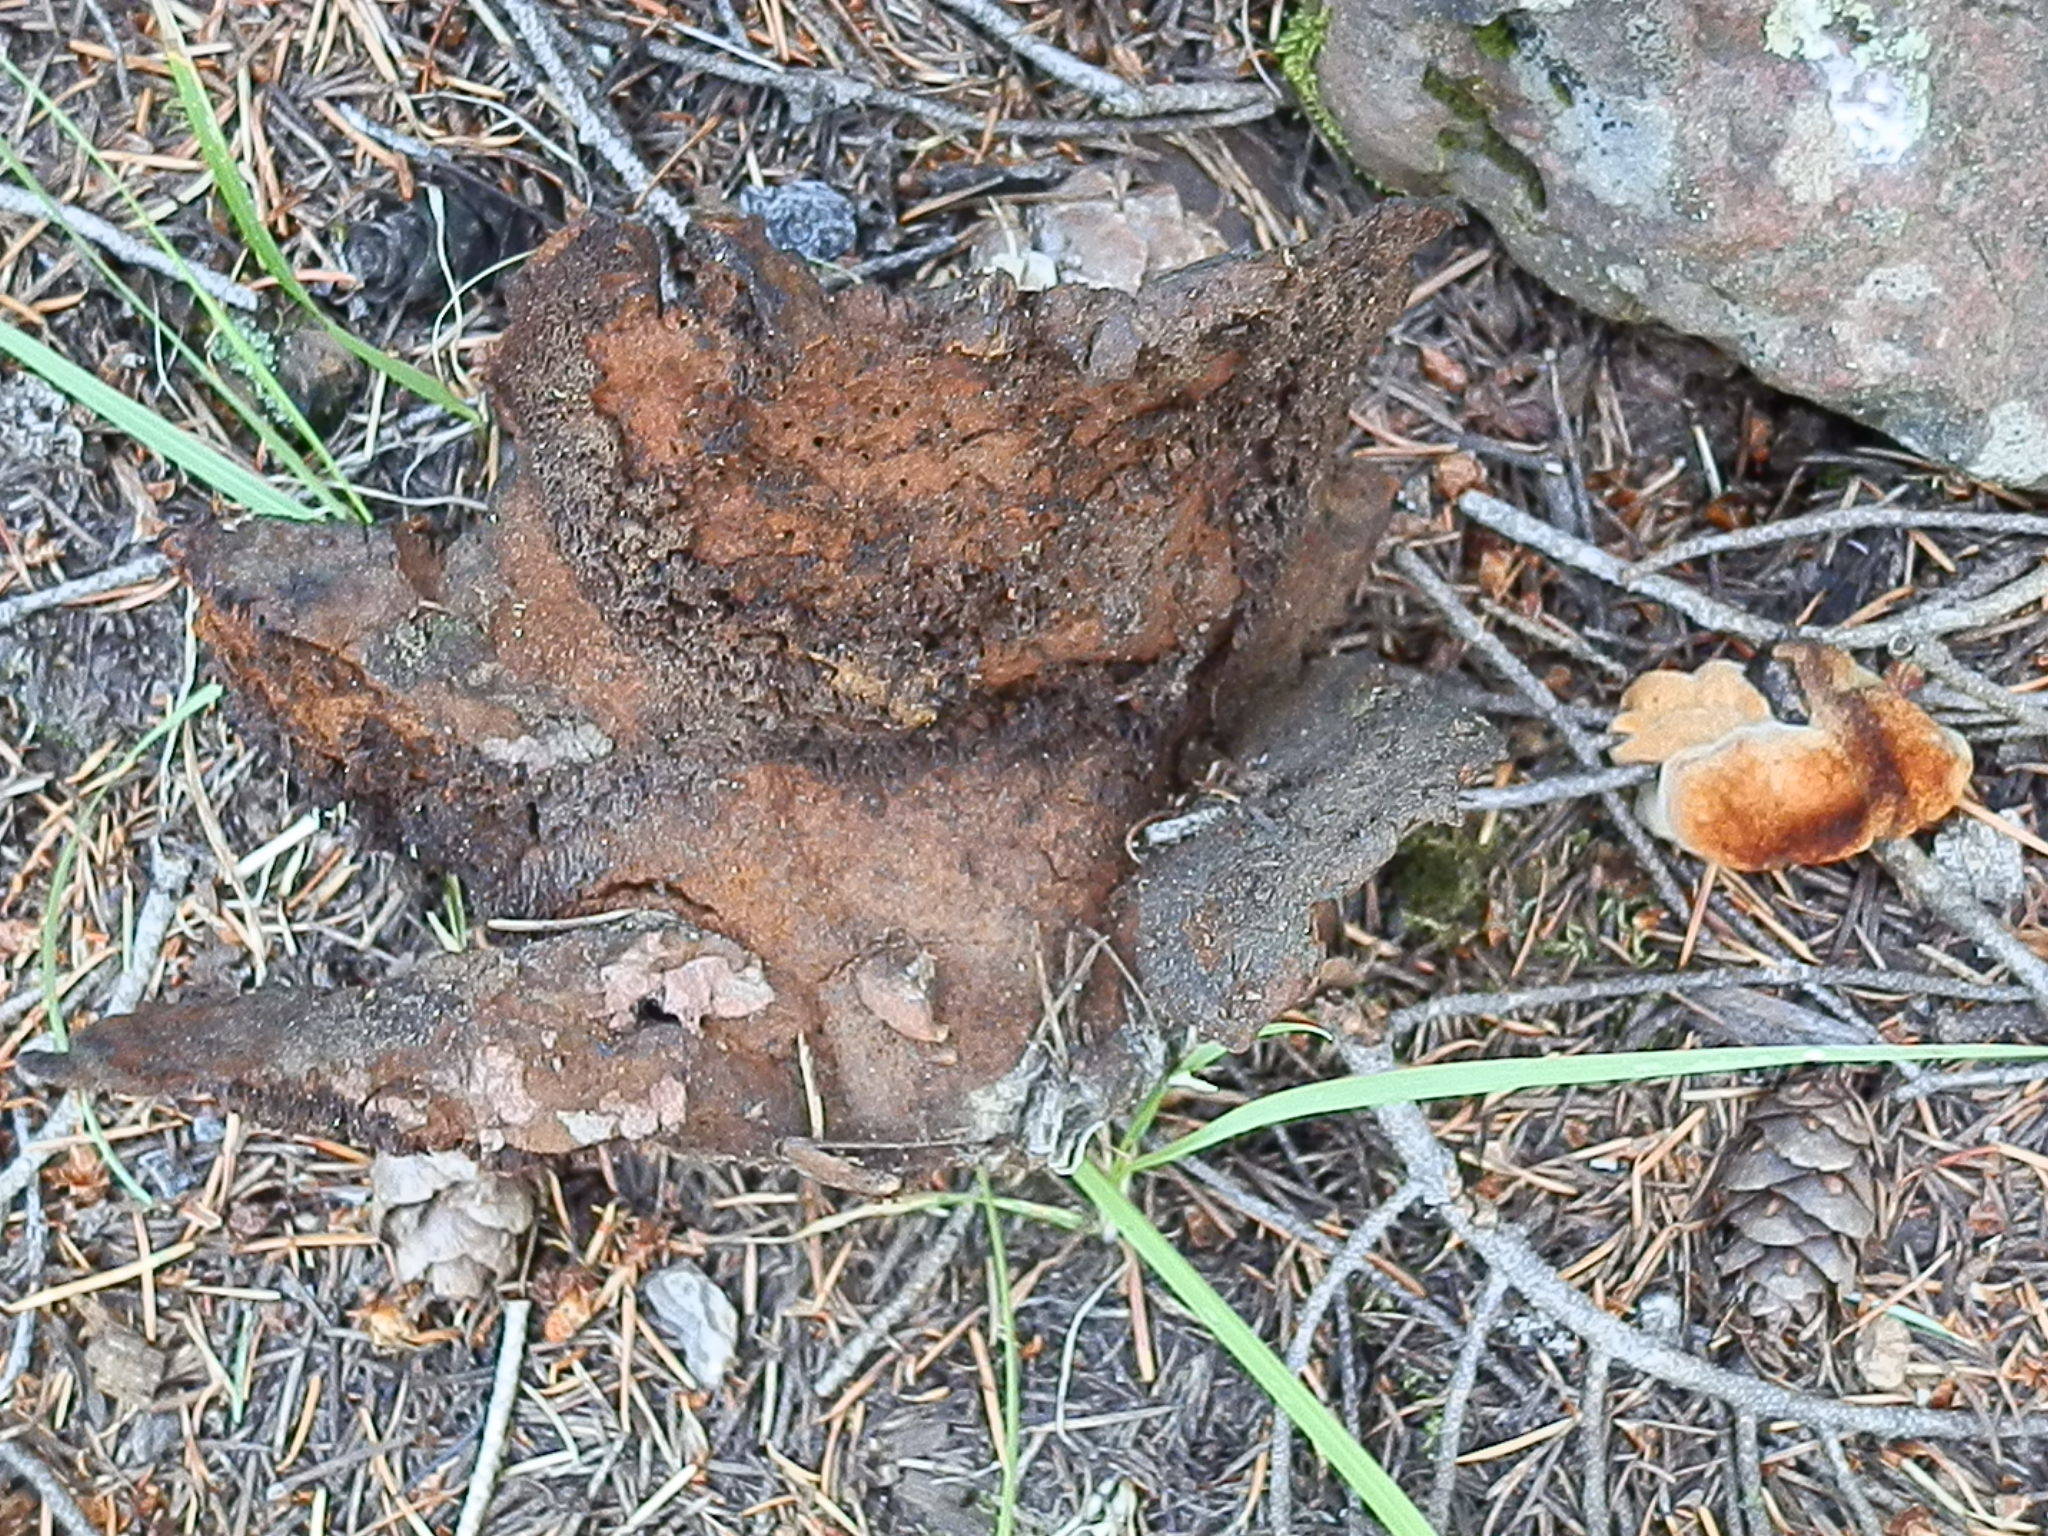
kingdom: Fungi
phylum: Basidiomycota
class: Agaricomycetes
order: Polyporales
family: Laetiporaceae
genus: Phaeolus
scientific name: Phaeolus schweinitzii
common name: Dyer's mazegill
